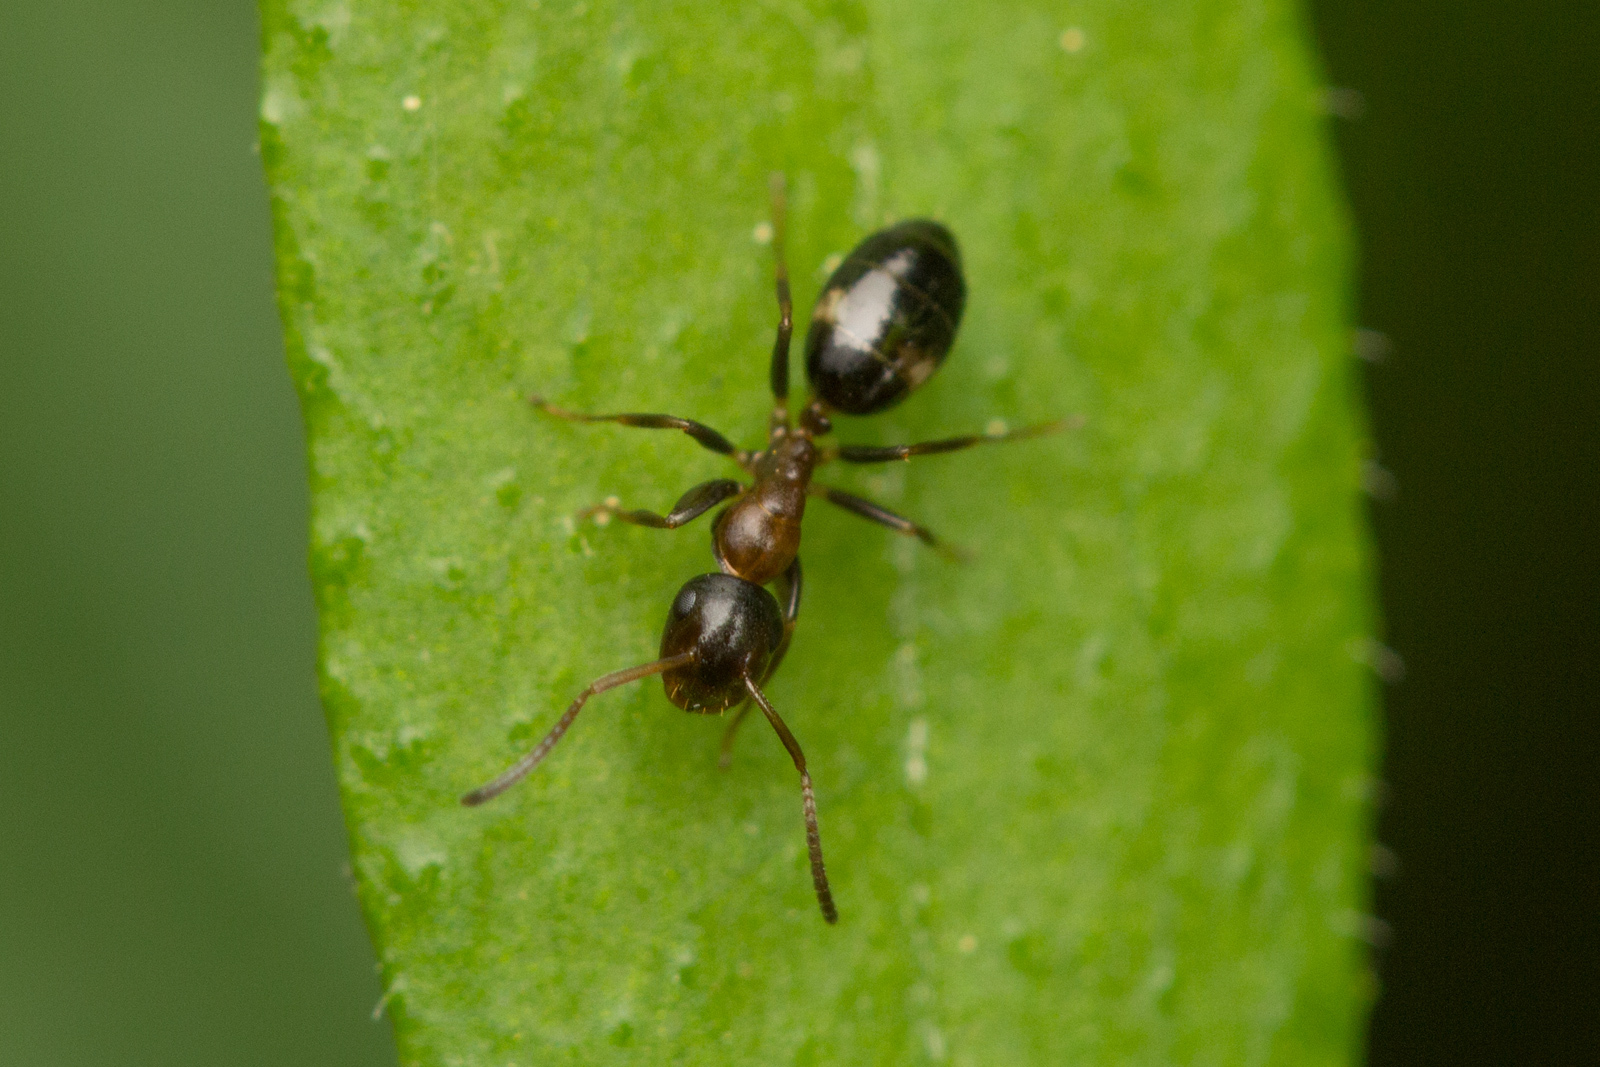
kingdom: Animalia
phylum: Arthropoda
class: Insecta
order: Hymenoptera
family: Formicidae
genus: Camponotus
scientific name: Camponotus truncatus
